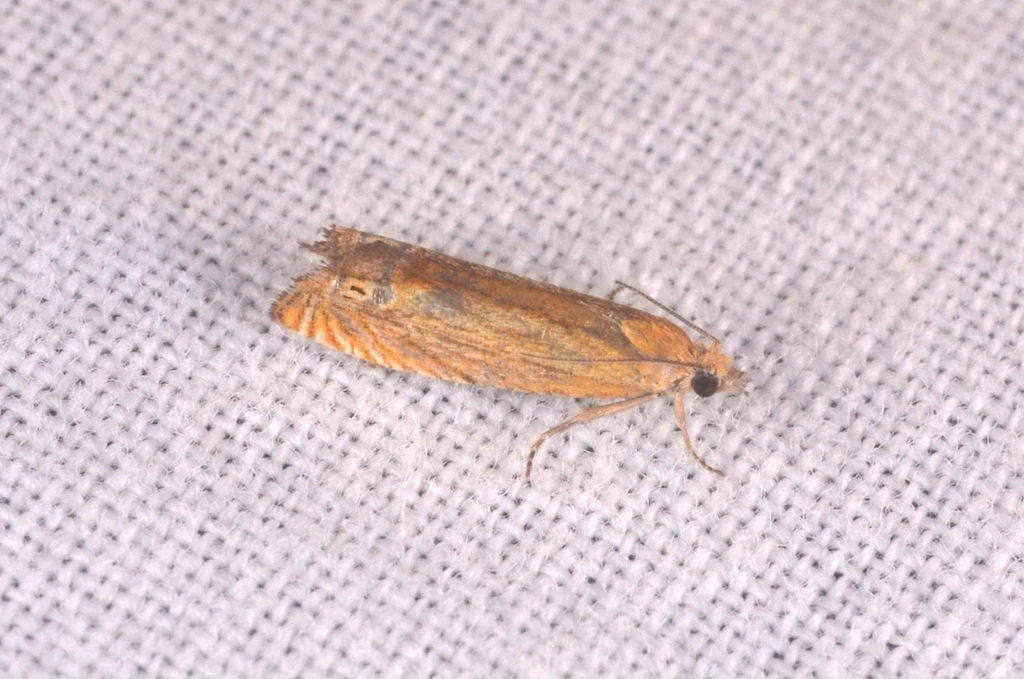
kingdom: Animalia
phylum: Arthropoda
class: Insecta
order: Lepidoptera
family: Tortricidae
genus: Lathronympha
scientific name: Lathronympha strigana
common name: Red piercer
